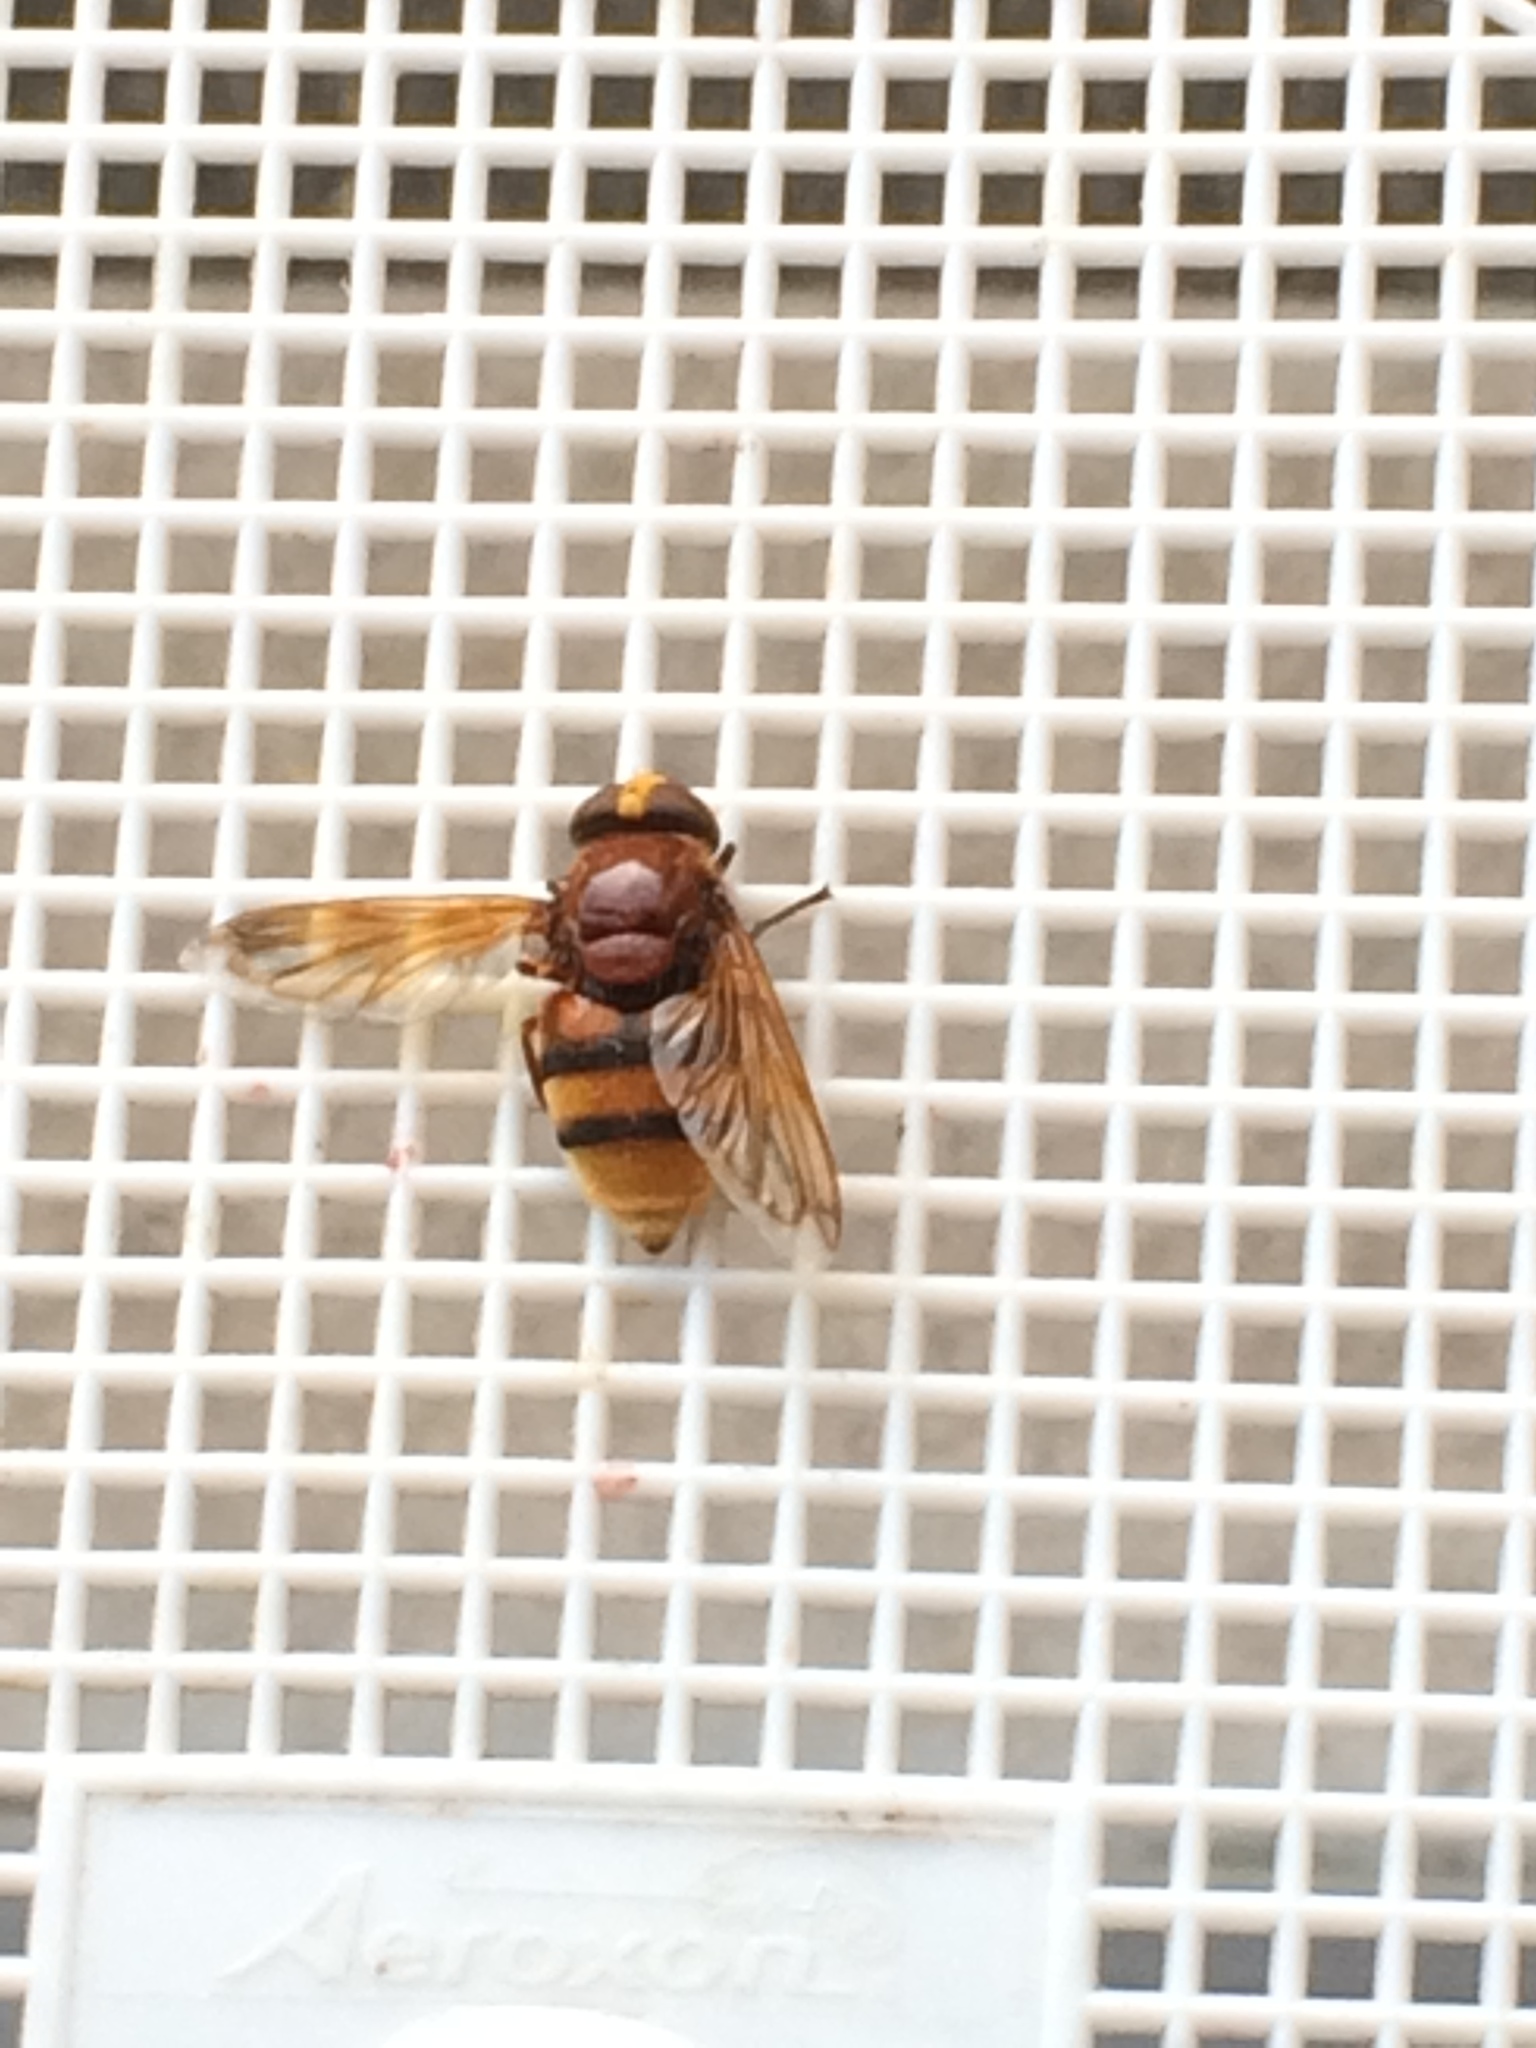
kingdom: Animalia
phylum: Arthropoda
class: Insecta
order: Diptera
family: Syrphidae
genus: Volucella
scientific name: Volucella zonaria
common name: Hornet hoverfly
